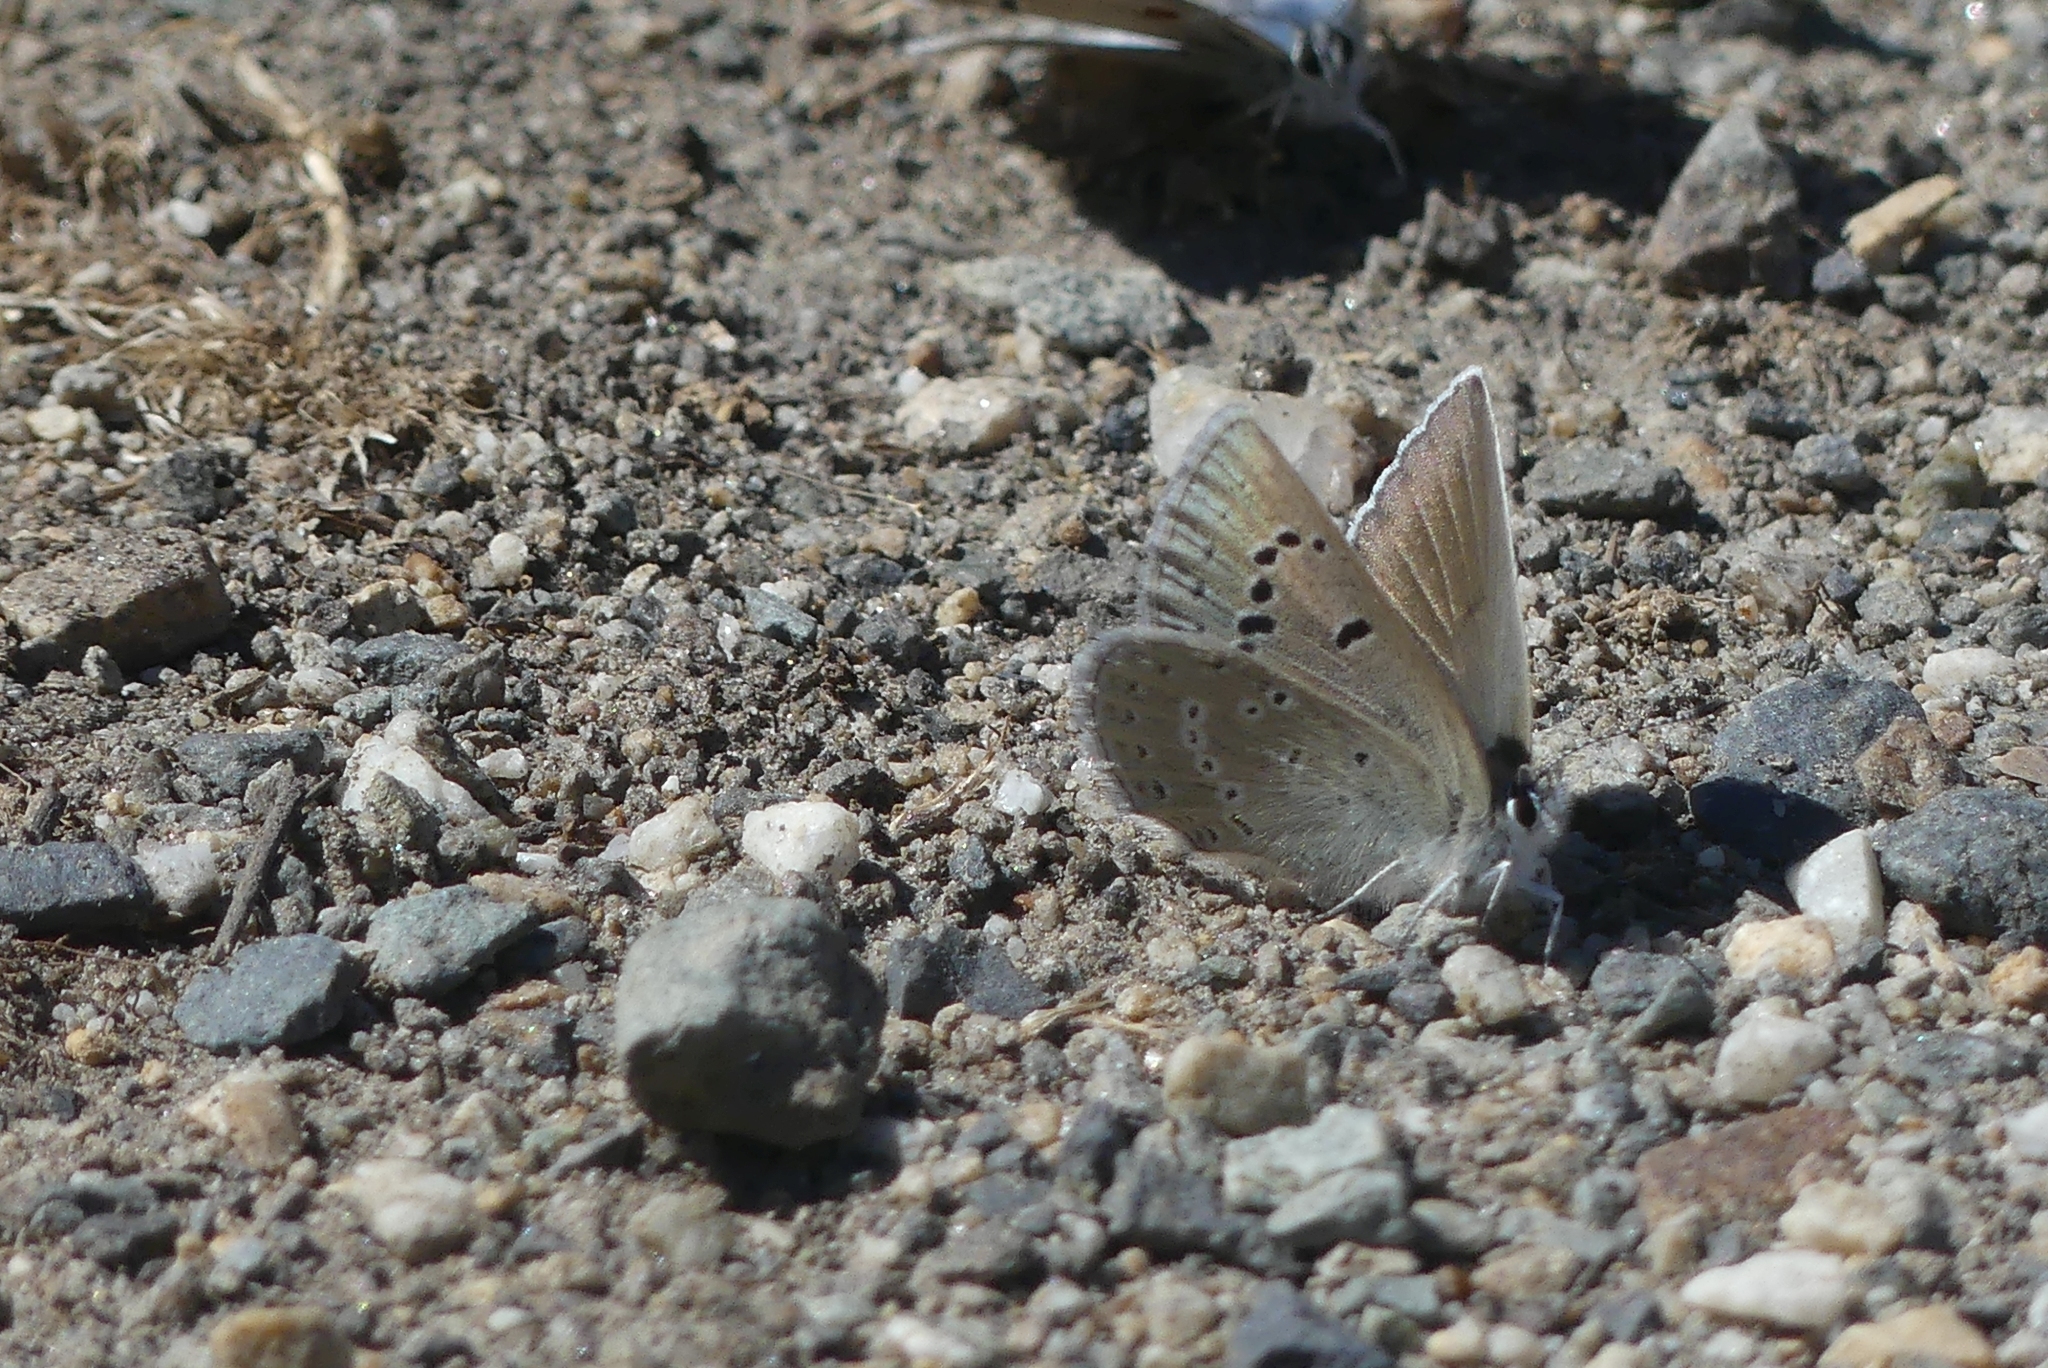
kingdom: Animalia
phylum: Arthropoda
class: Insecta
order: Lepidoptera
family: Lycaenidae
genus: Icaricia
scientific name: Icaricia icarioides
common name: Boisduval's blue
